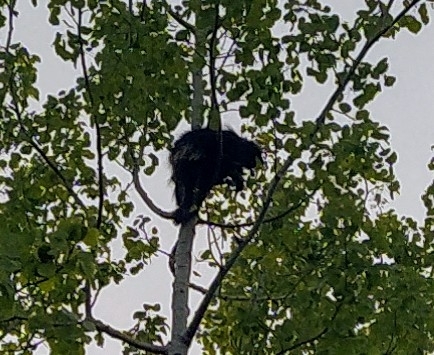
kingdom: Animalia
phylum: Chordata
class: Mammalia
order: Rodentia
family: Erethizontidae
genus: Erethizon
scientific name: Erethizon dorsatus
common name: North american porcupine
